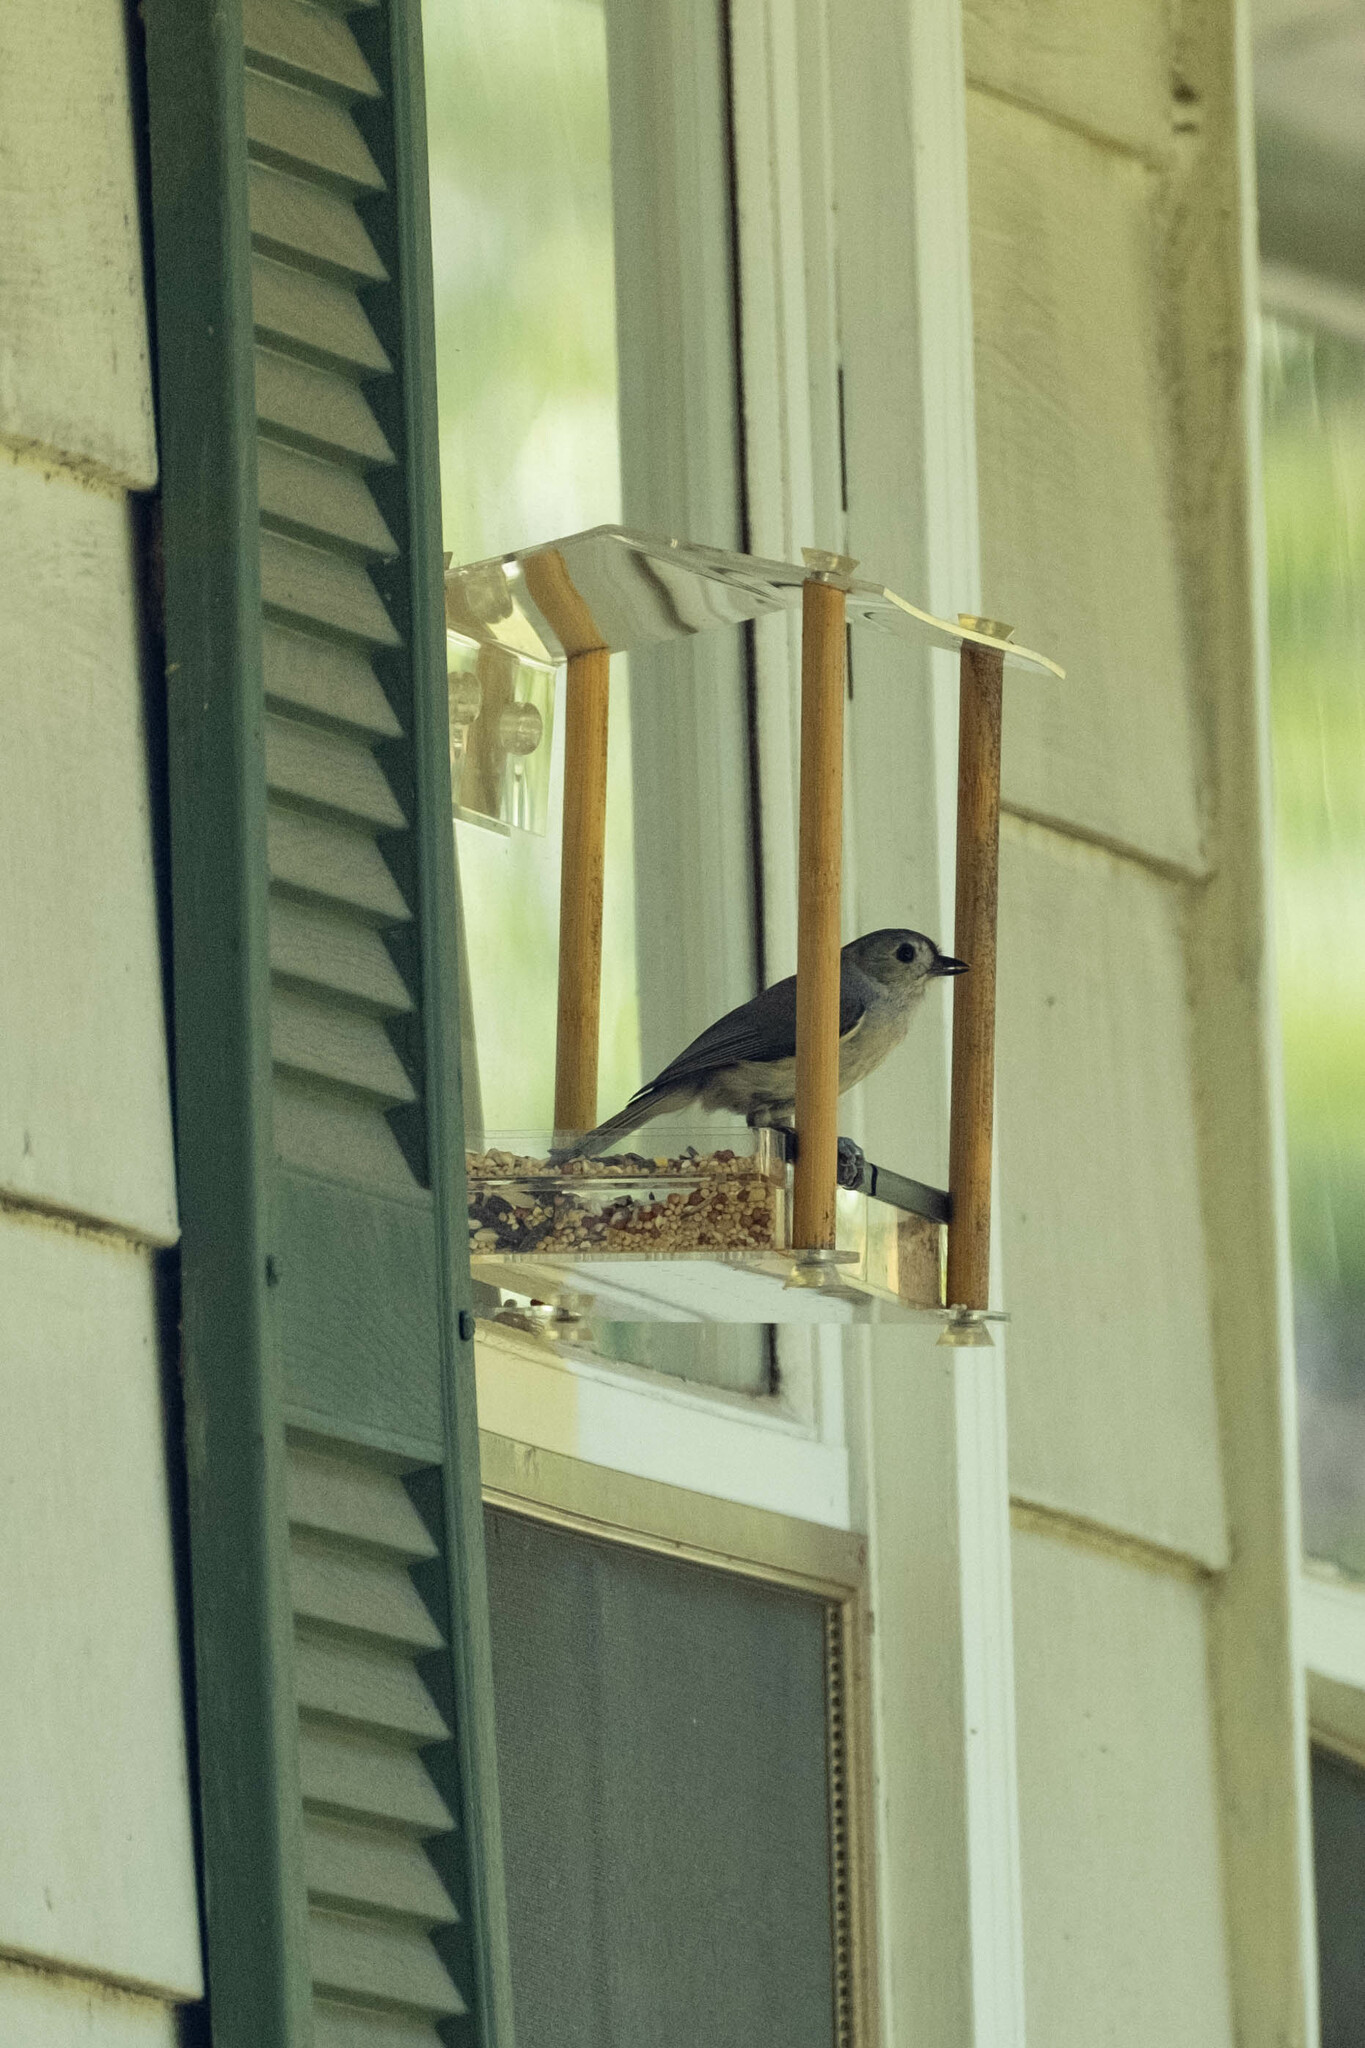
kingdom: Animalia
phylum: Chordata
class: Aves
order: Passeriformes
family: Paridae
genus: Baeolophus
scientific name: Baeolophus bicolor
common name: Tufted titmouse
